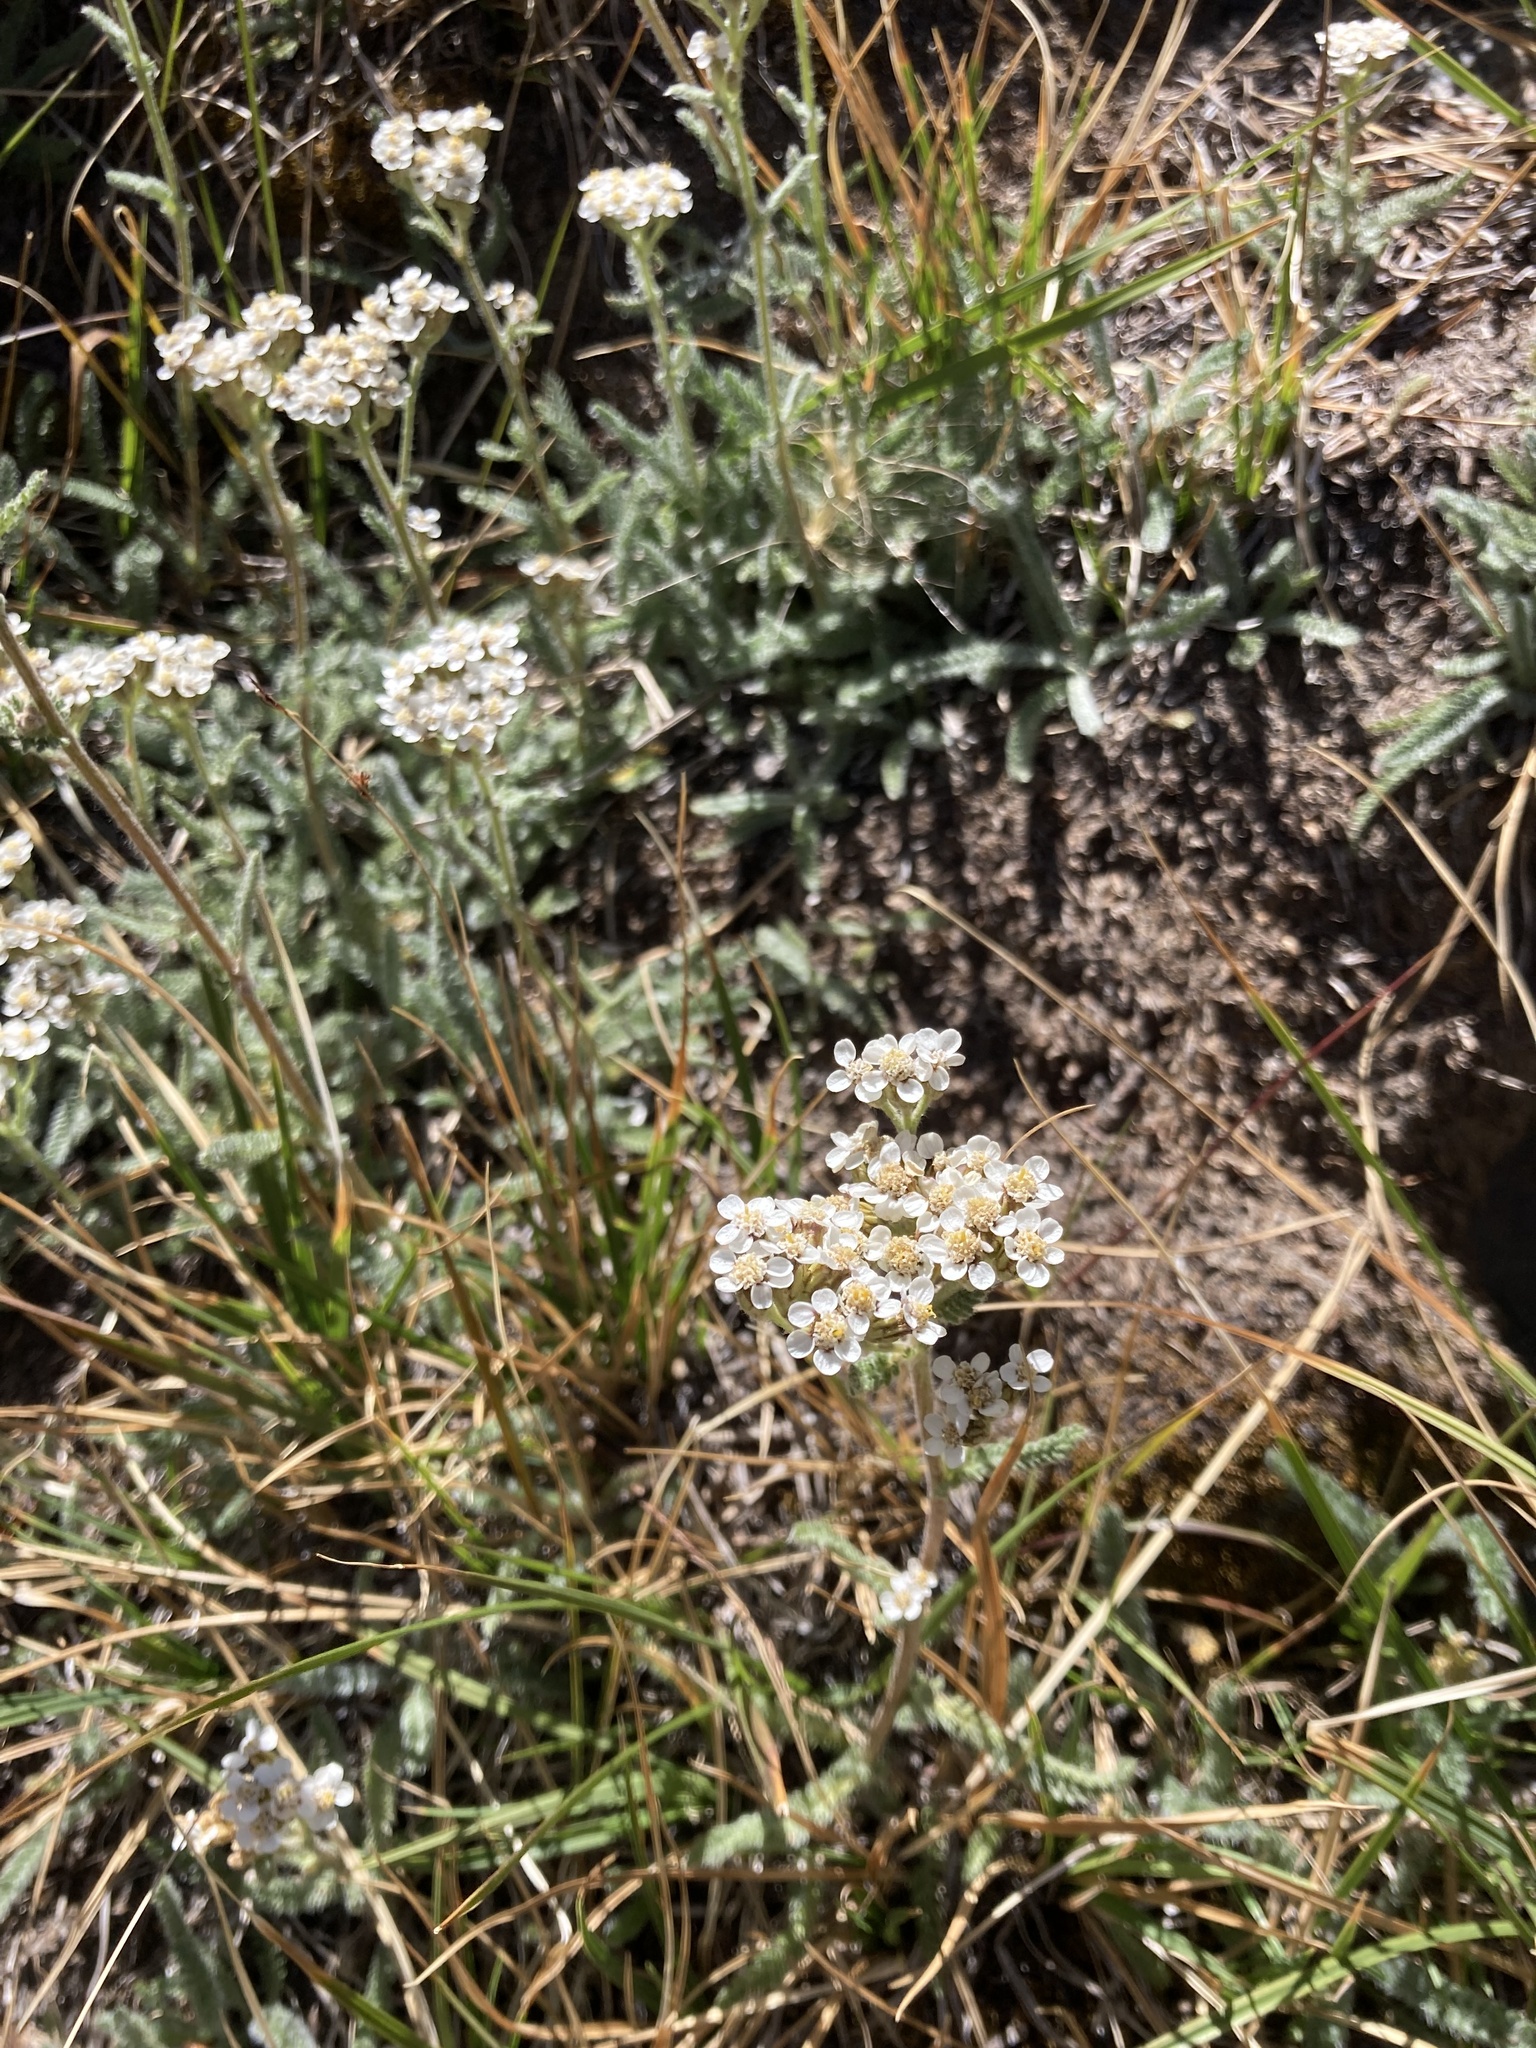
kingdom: Plantae
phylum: Tracheophyta
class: Magnoliopsida
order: Asterales
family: Asteraceae
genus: Achillea
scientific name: Achillea millefolium
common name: Yarrow
